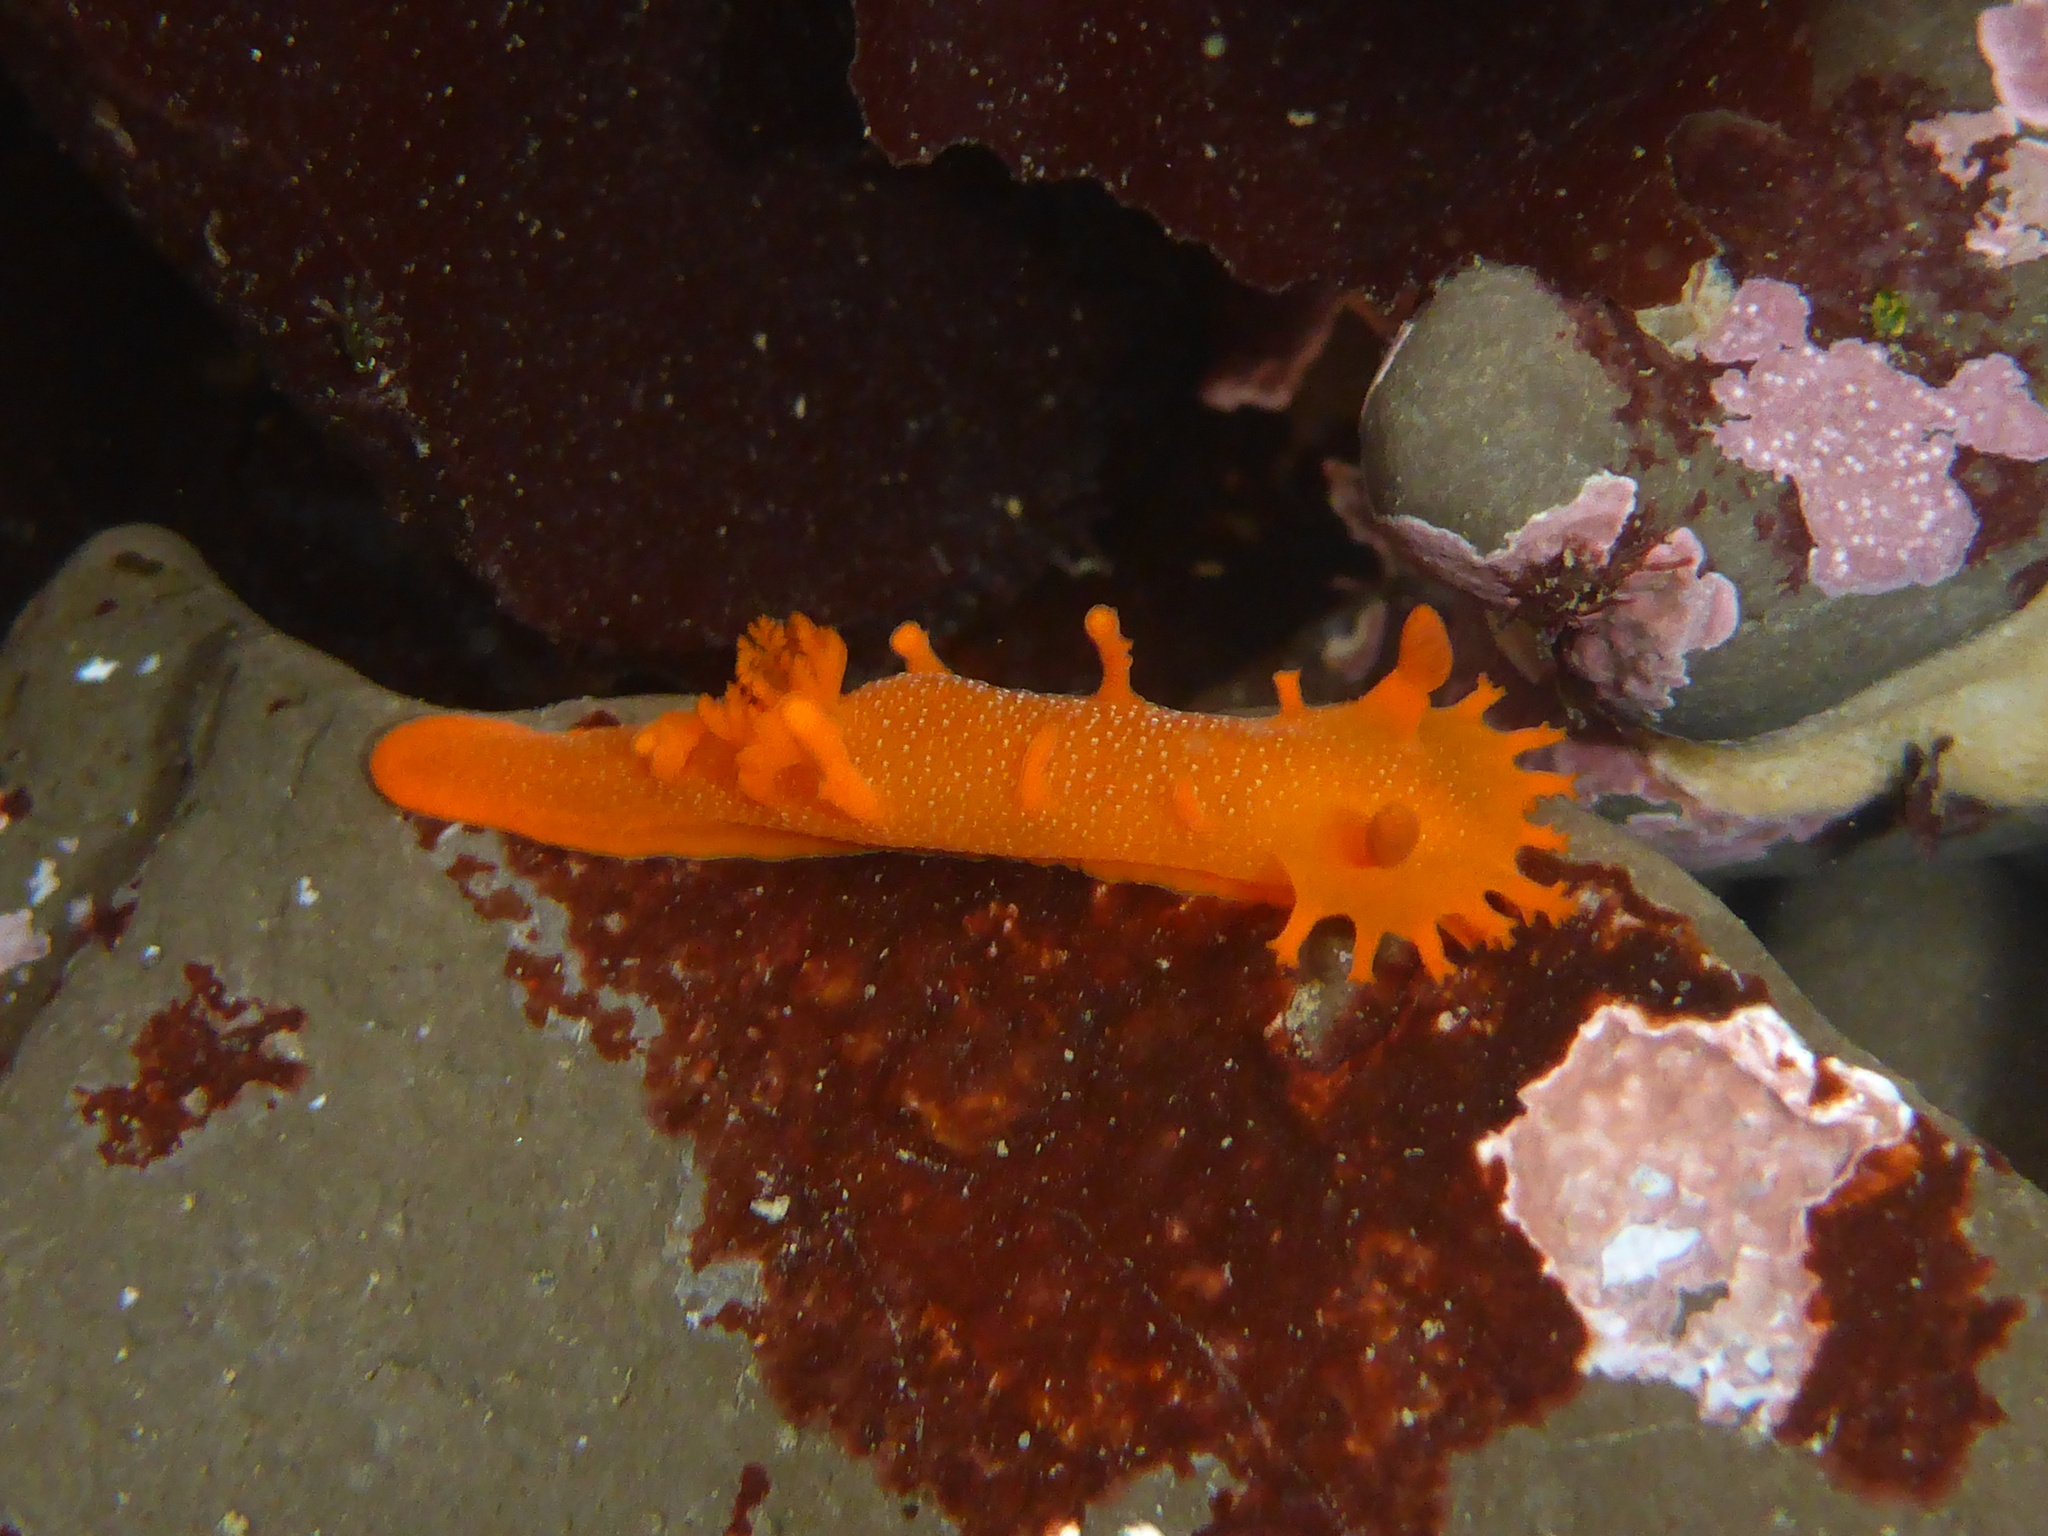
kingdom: Animalia
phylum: Mollusca
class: Gastropoda
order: Nudibranchia
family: Polyceridae
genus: Triopha
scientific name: Triopha maculata
